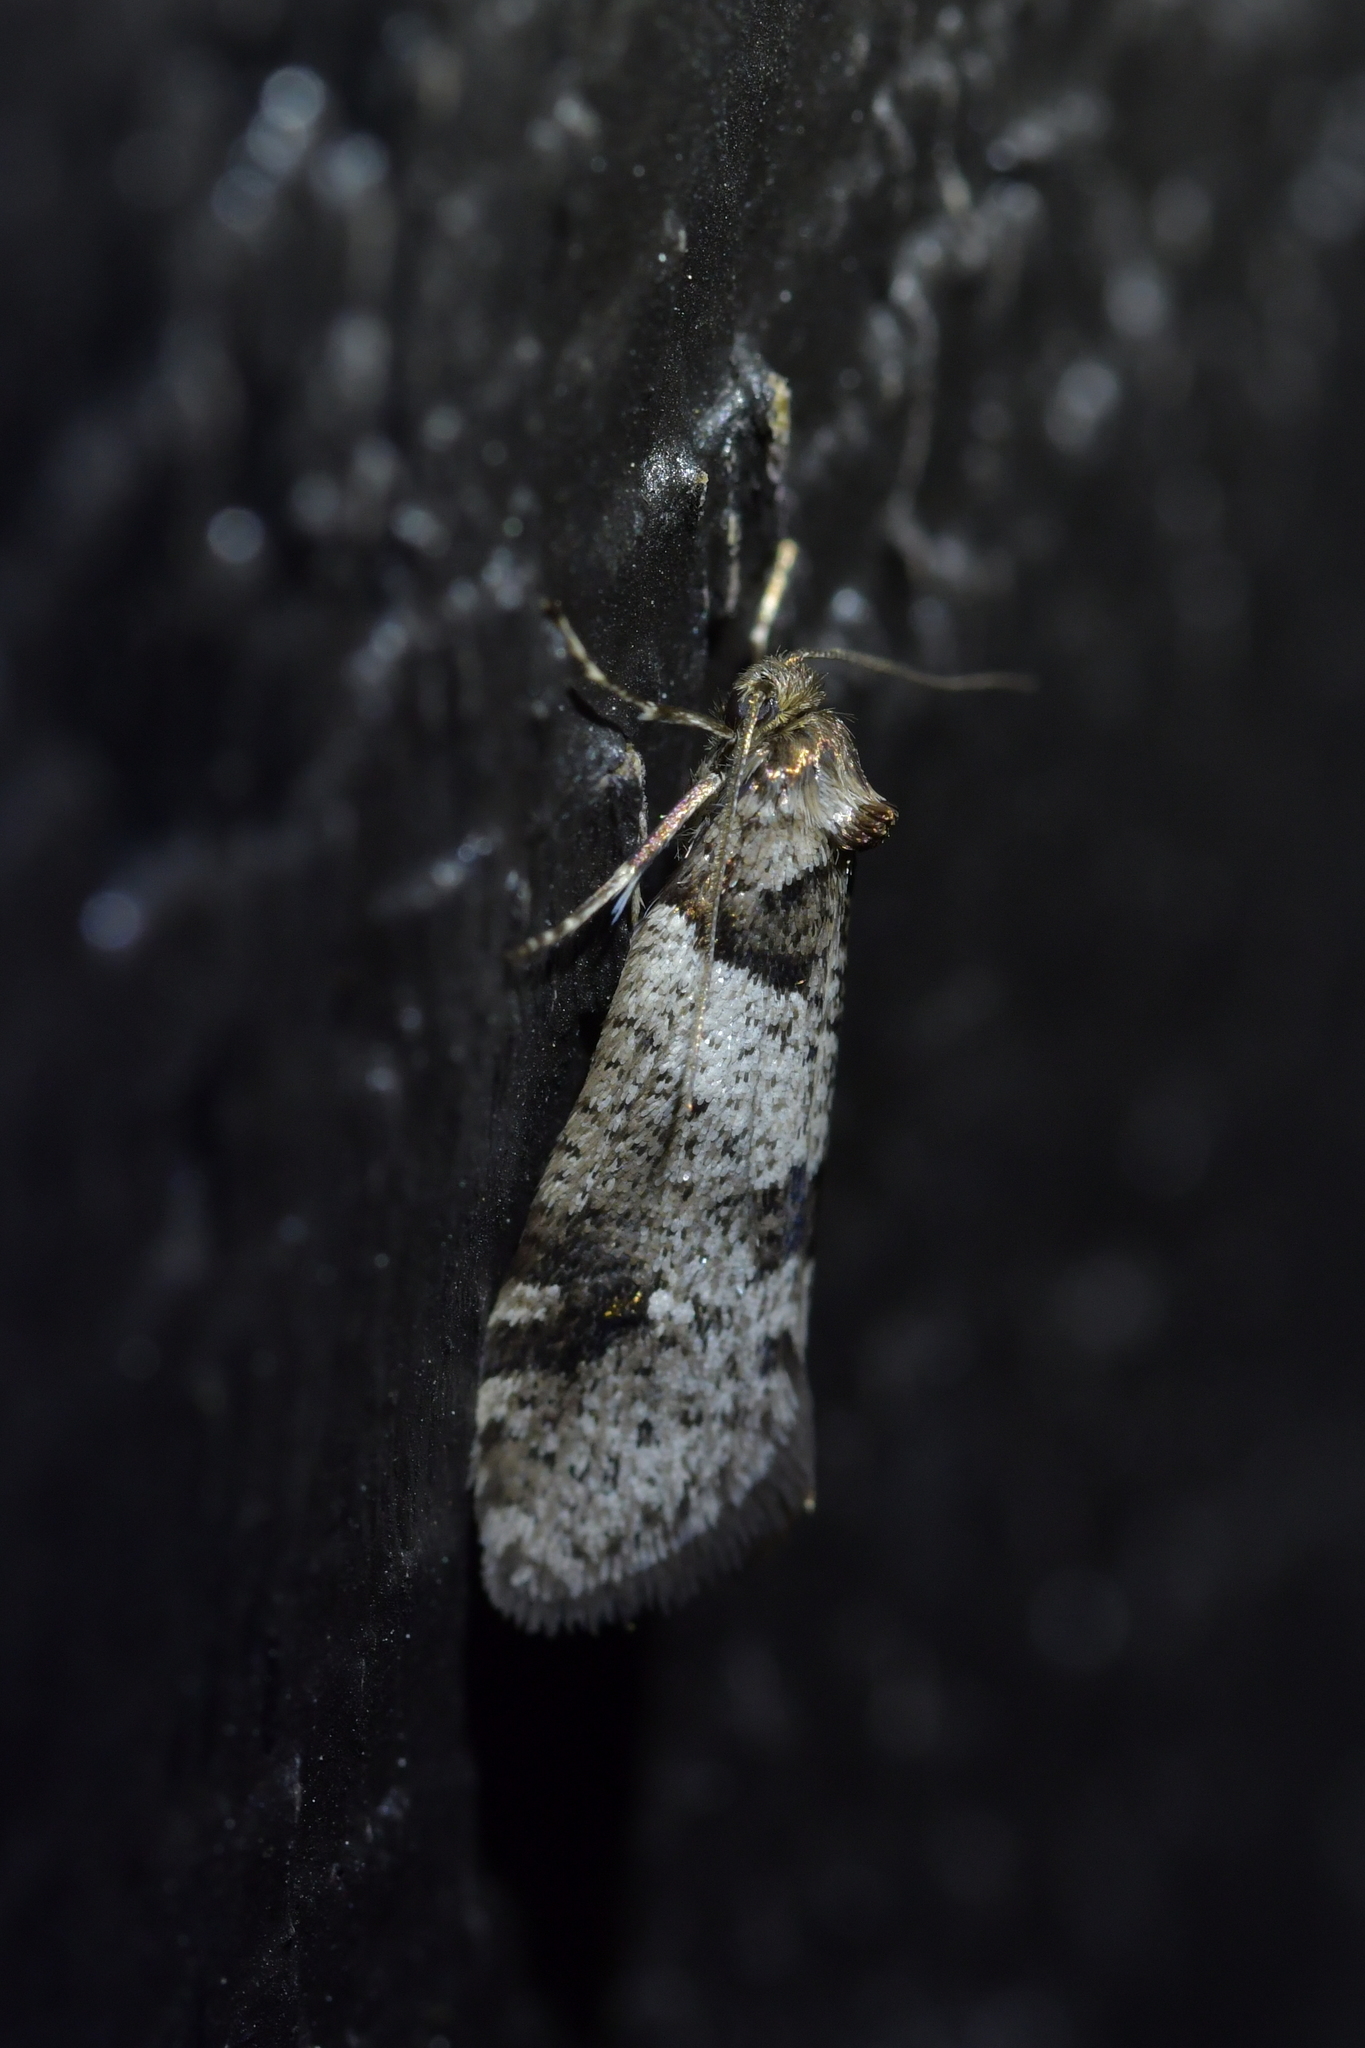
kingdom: Animalia
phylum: Arthropoda
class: Insecta
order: Lepidoptera
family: Psychidae
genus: Lepidoscia
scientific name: Lepidoscia heliochares
